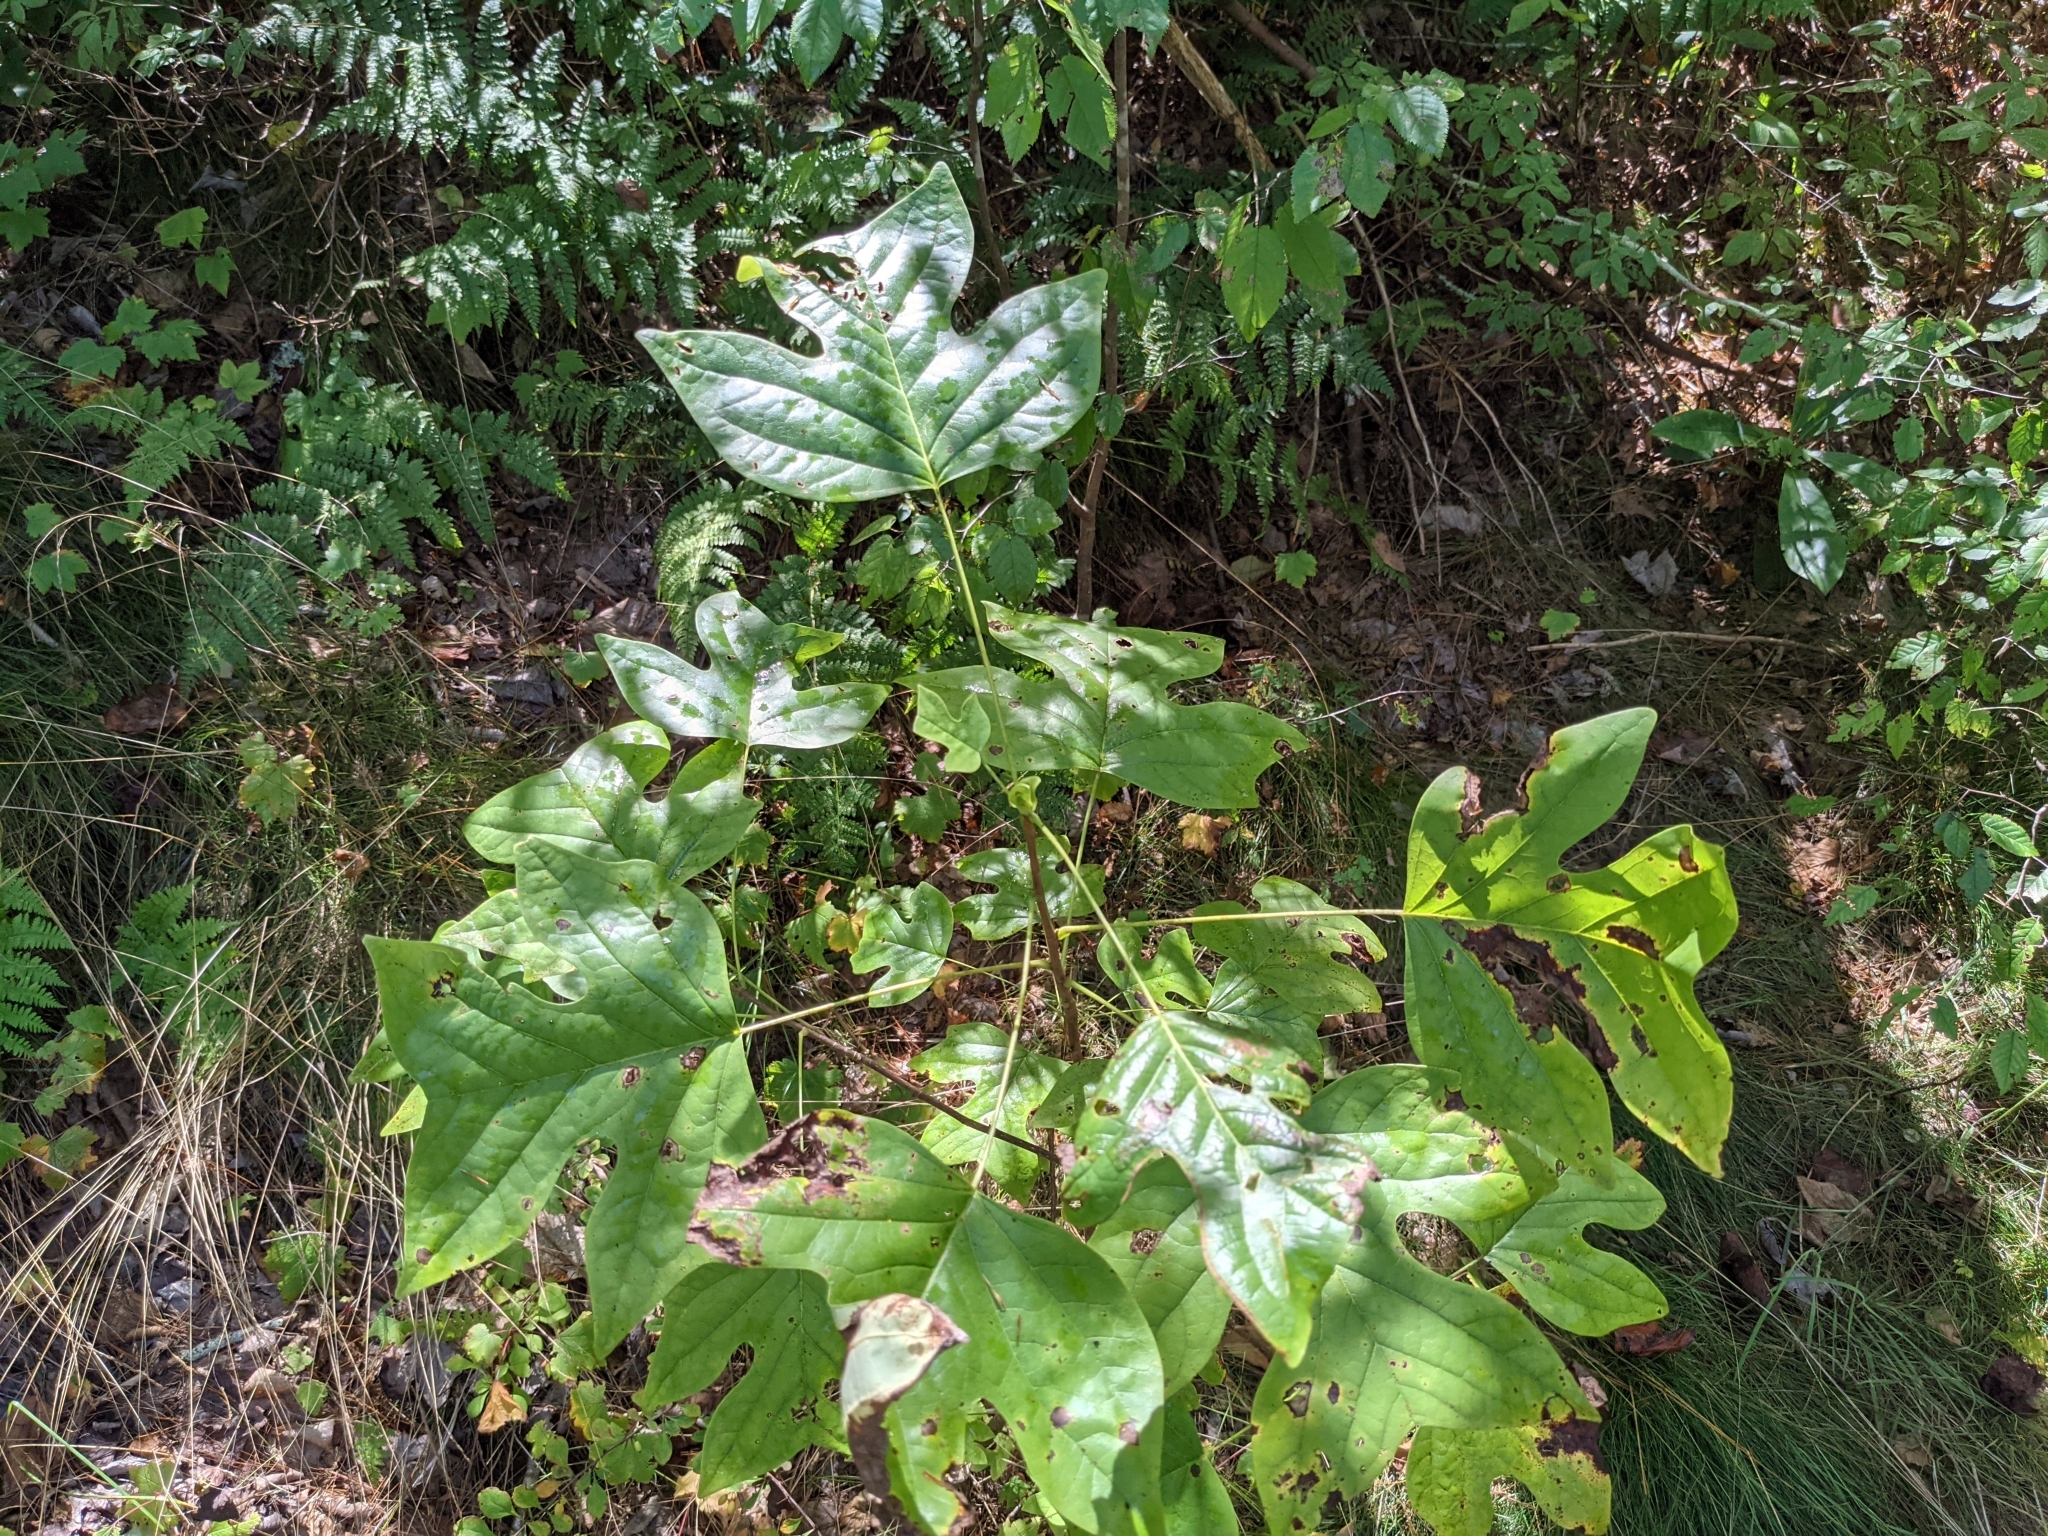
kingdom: Plantae
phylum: Tracheophyta
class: Magnoliopsida
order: Magnoliales
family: Magnoliaceae
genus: Liriodendron
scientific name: Liriodendron tulipifera
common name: Tulip tree
